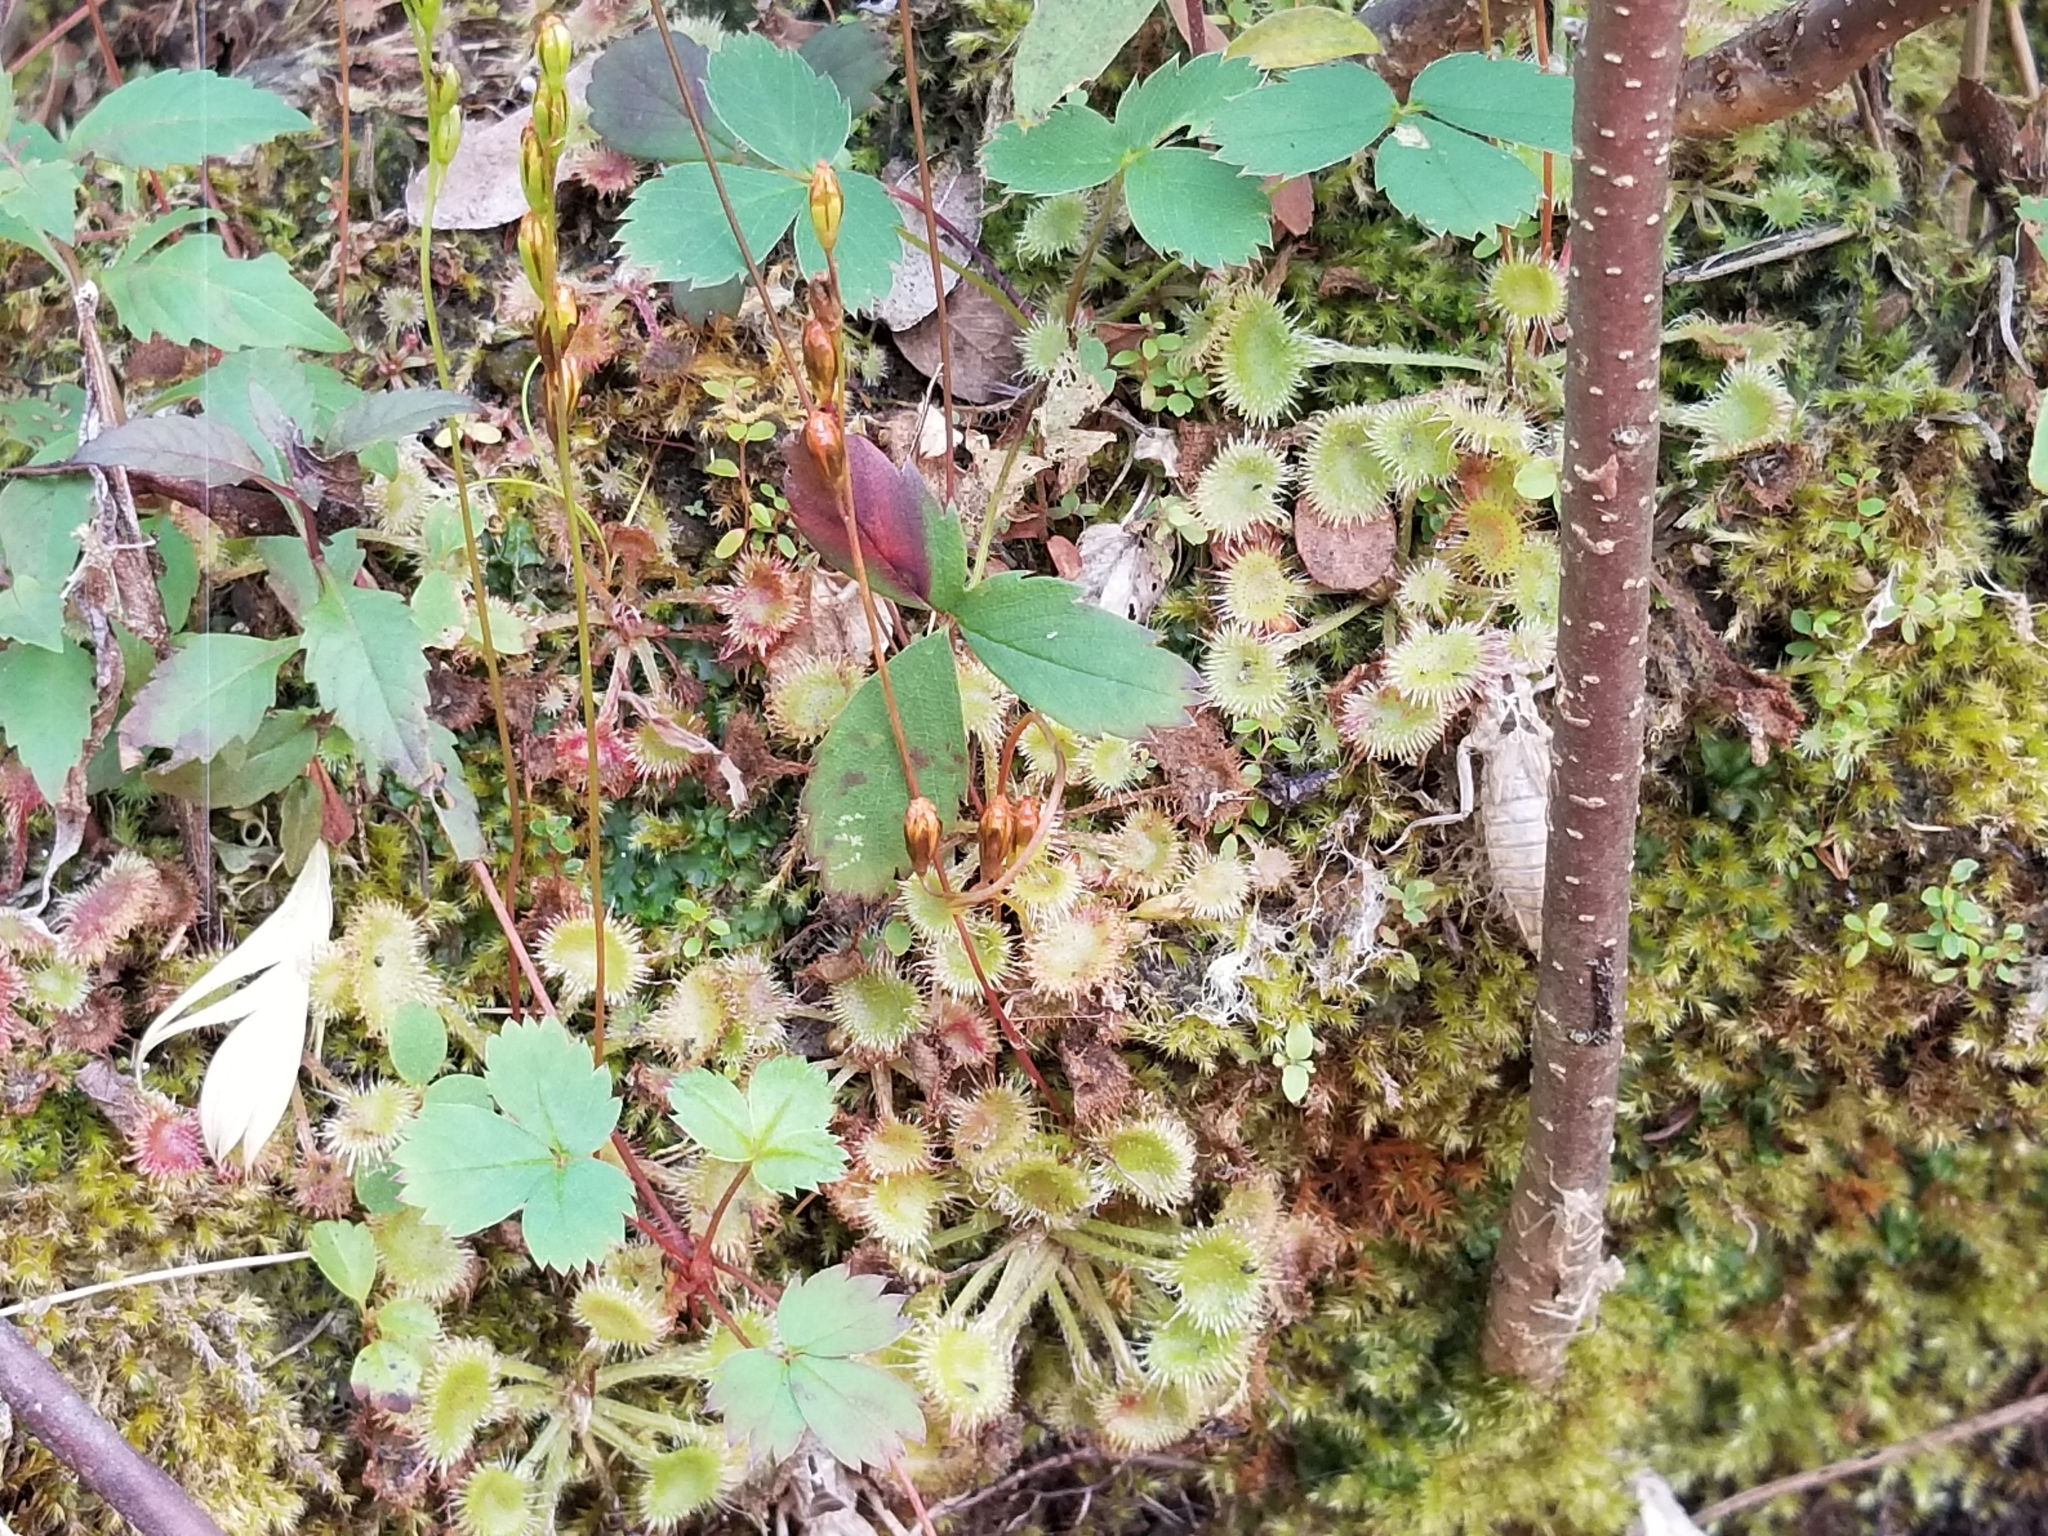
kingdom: Plantae
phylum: Tracheophyta
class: Magnoliopsida
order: Caryophyllales
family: Droseraceae
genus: Drosera
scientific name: Drosera rotundifolia
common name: Round-leaved sundew
